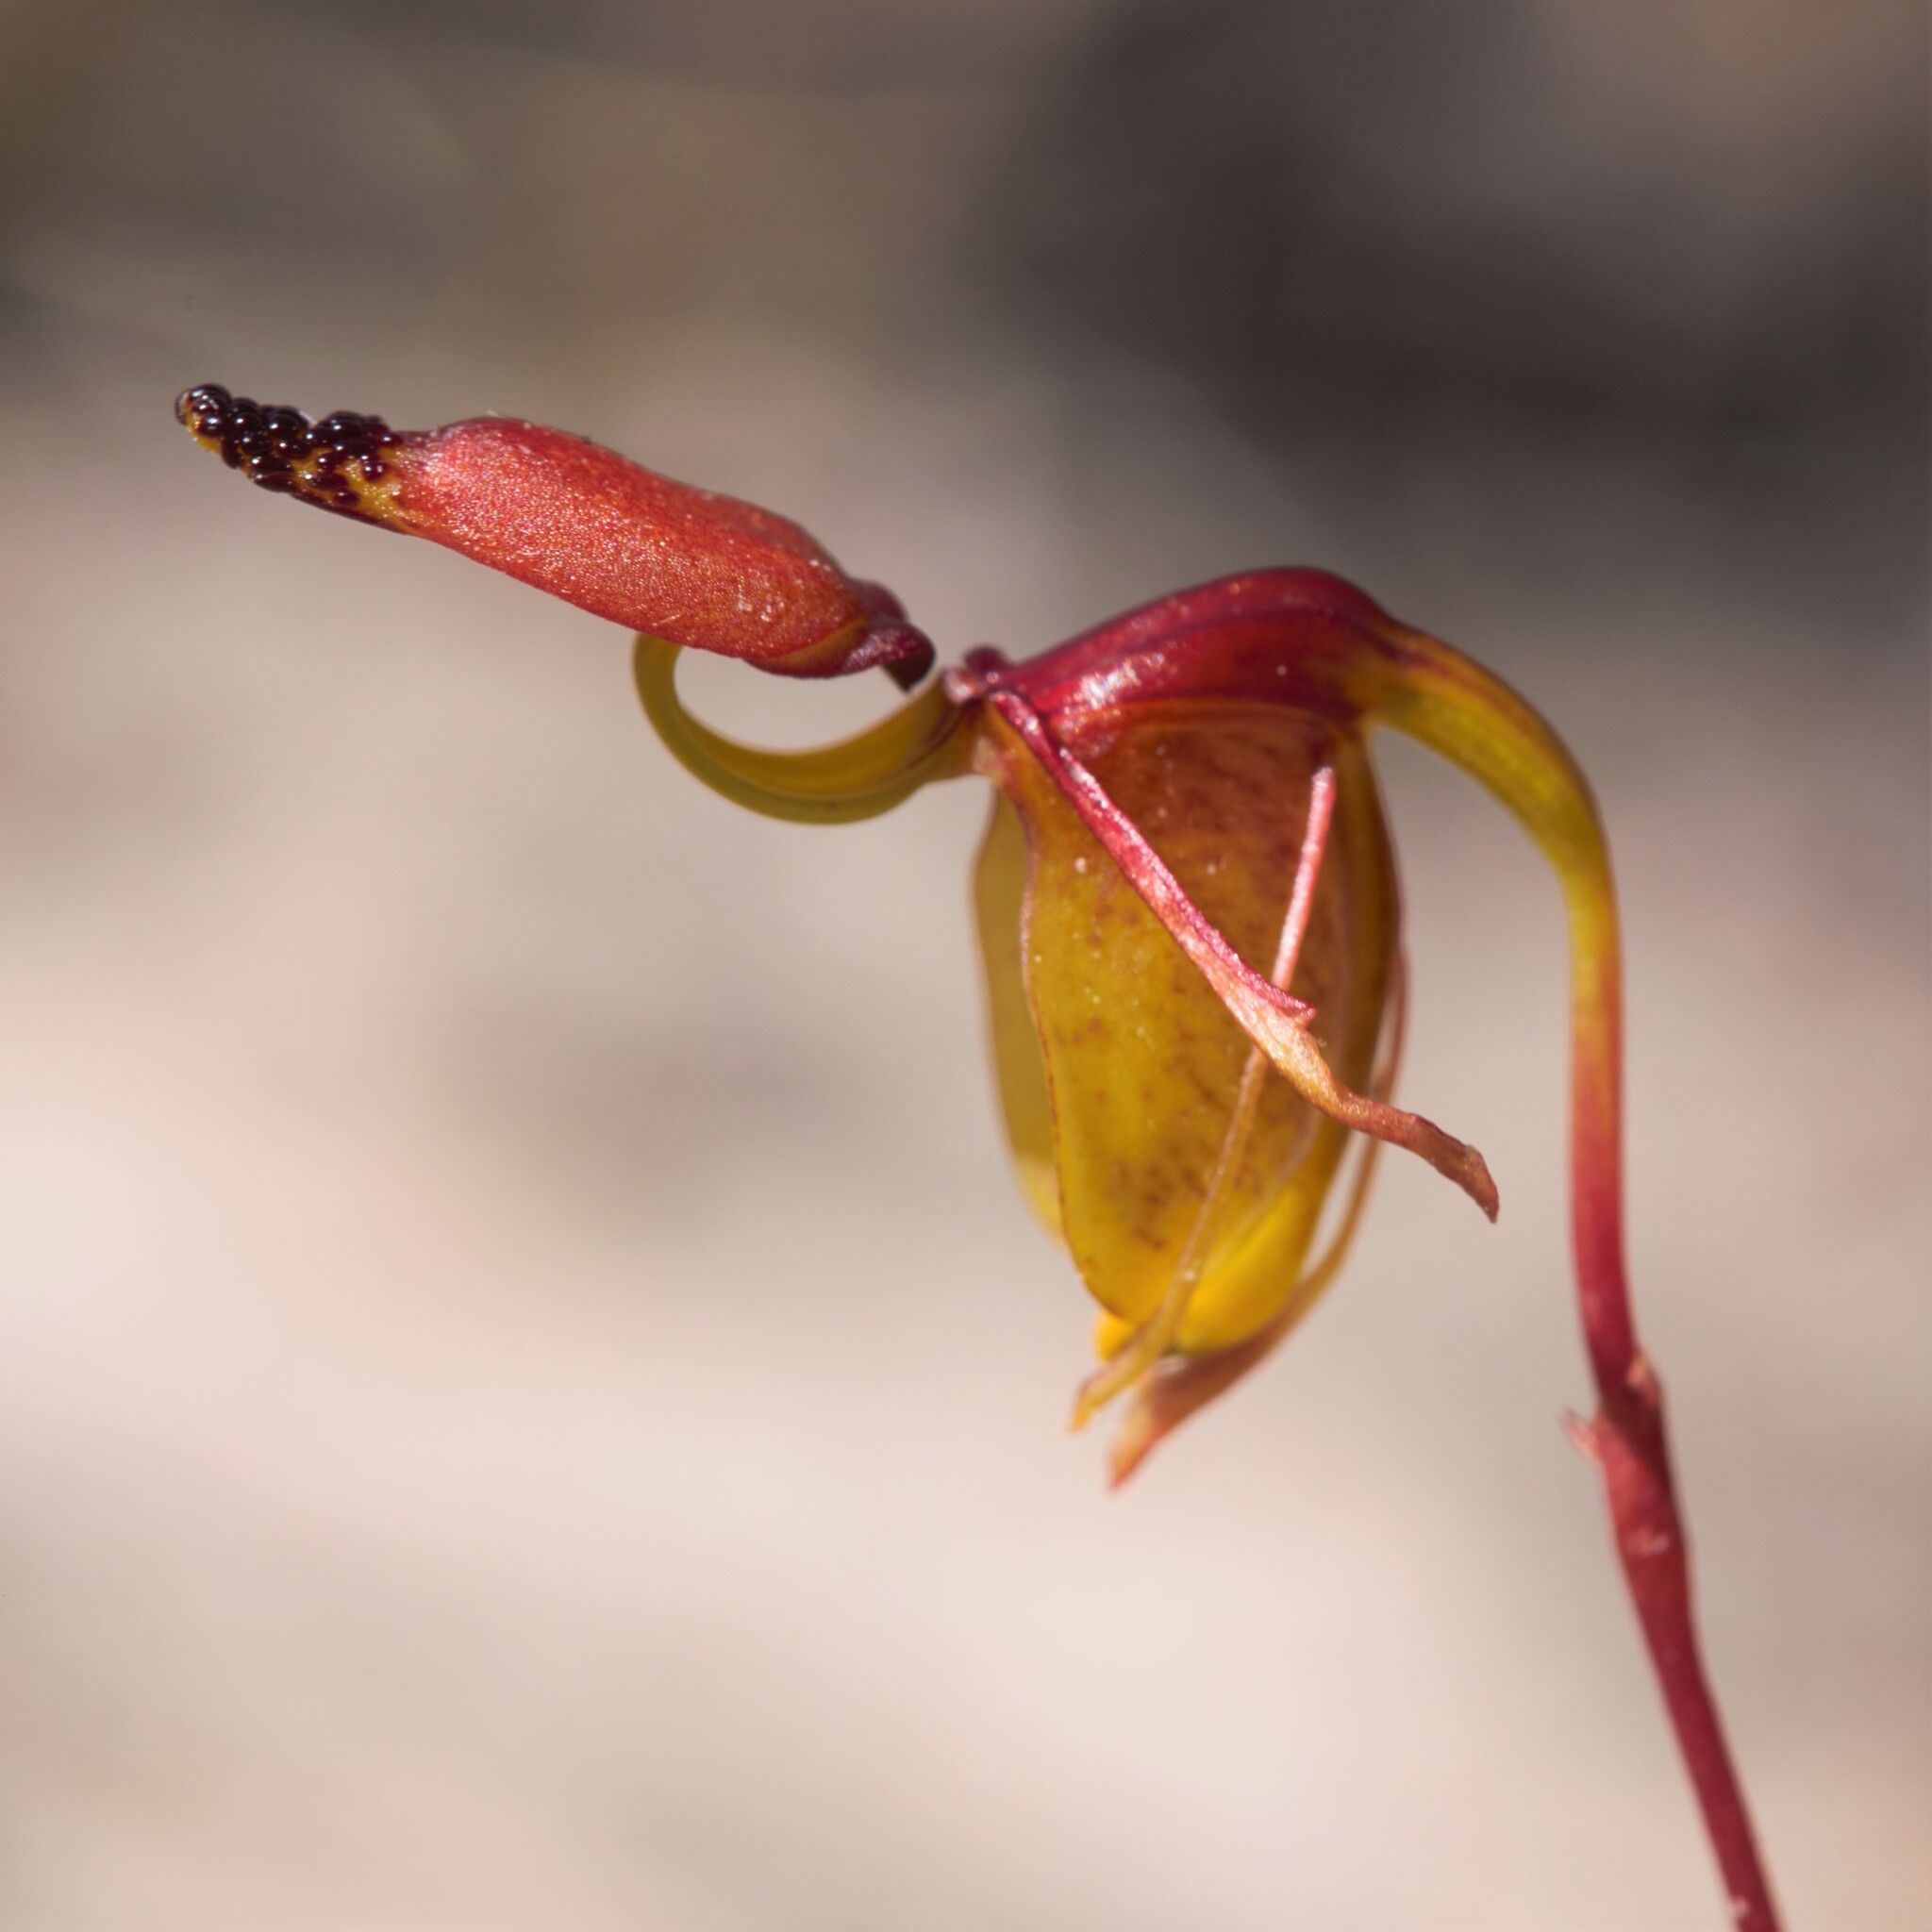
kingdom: Plantae
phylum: Tracheophyta
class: Liliopsida
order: Asparagales
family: Orchidaceae
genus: Caleana
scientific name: Caleana dixonii
